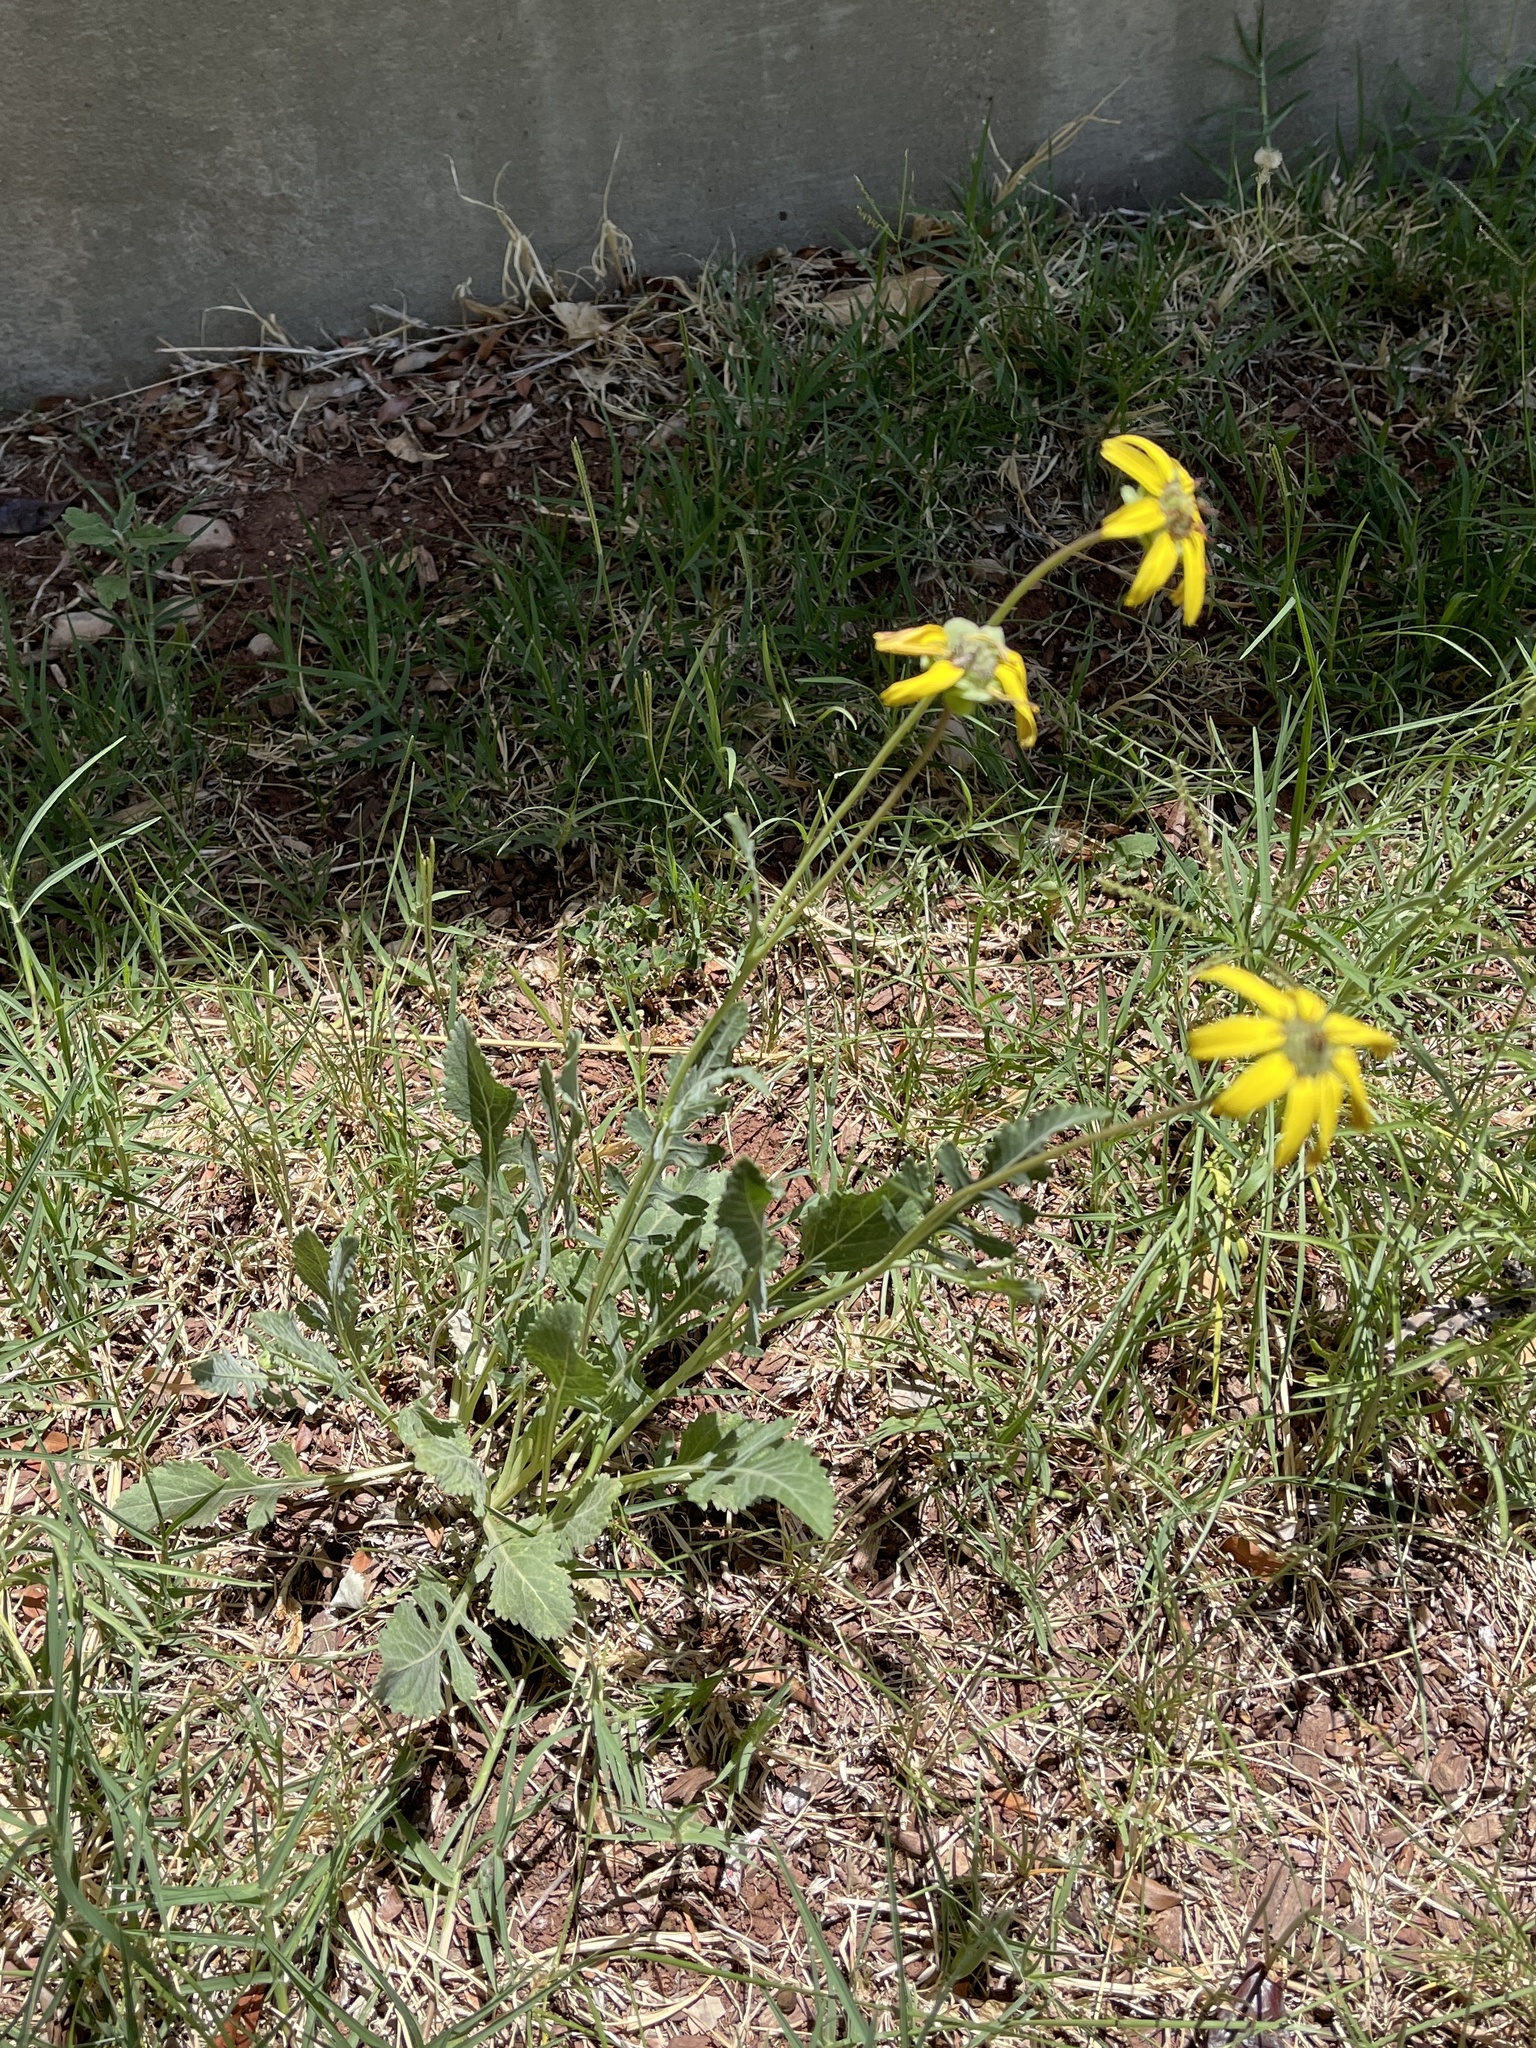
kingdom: Plantae
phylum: Tracheophyta
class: Magnoliopsida
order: Asterales
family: Asteraceae
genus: Berlandiera
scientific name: Berlandiera lyrata
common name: Chocolate-flower
